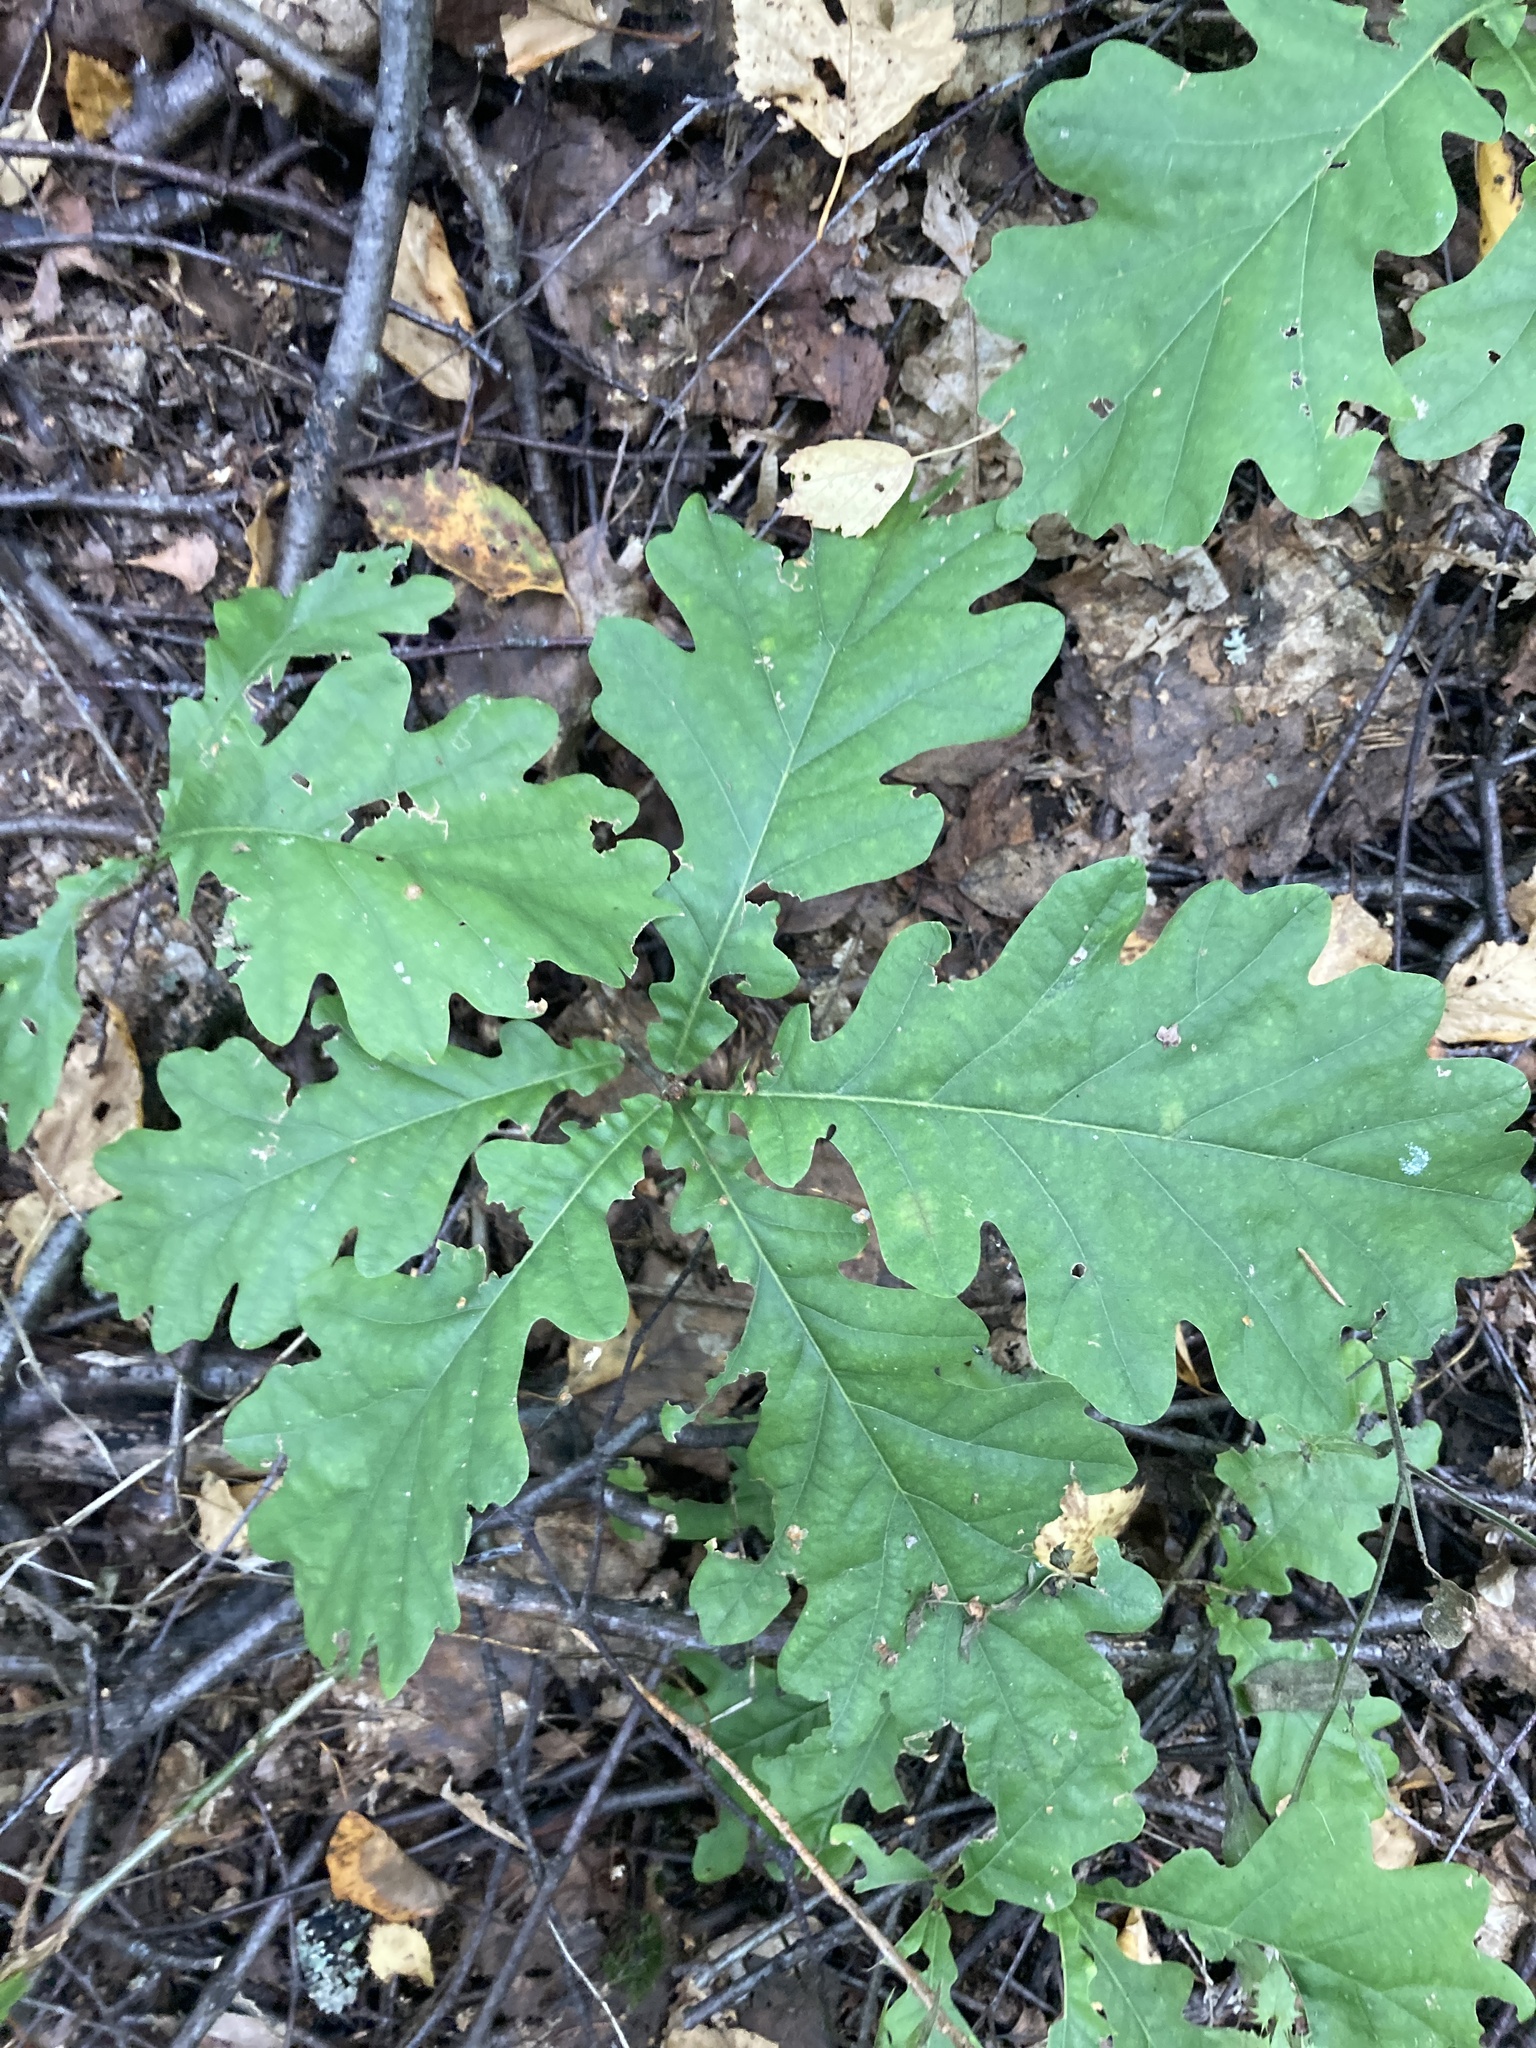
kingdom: Plantae
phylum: Tracheophyta
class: Magnoliopsida
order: Fagales
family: Fagaceae
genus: Quercus
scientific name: Quercus robur
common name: Pedunculate oak
